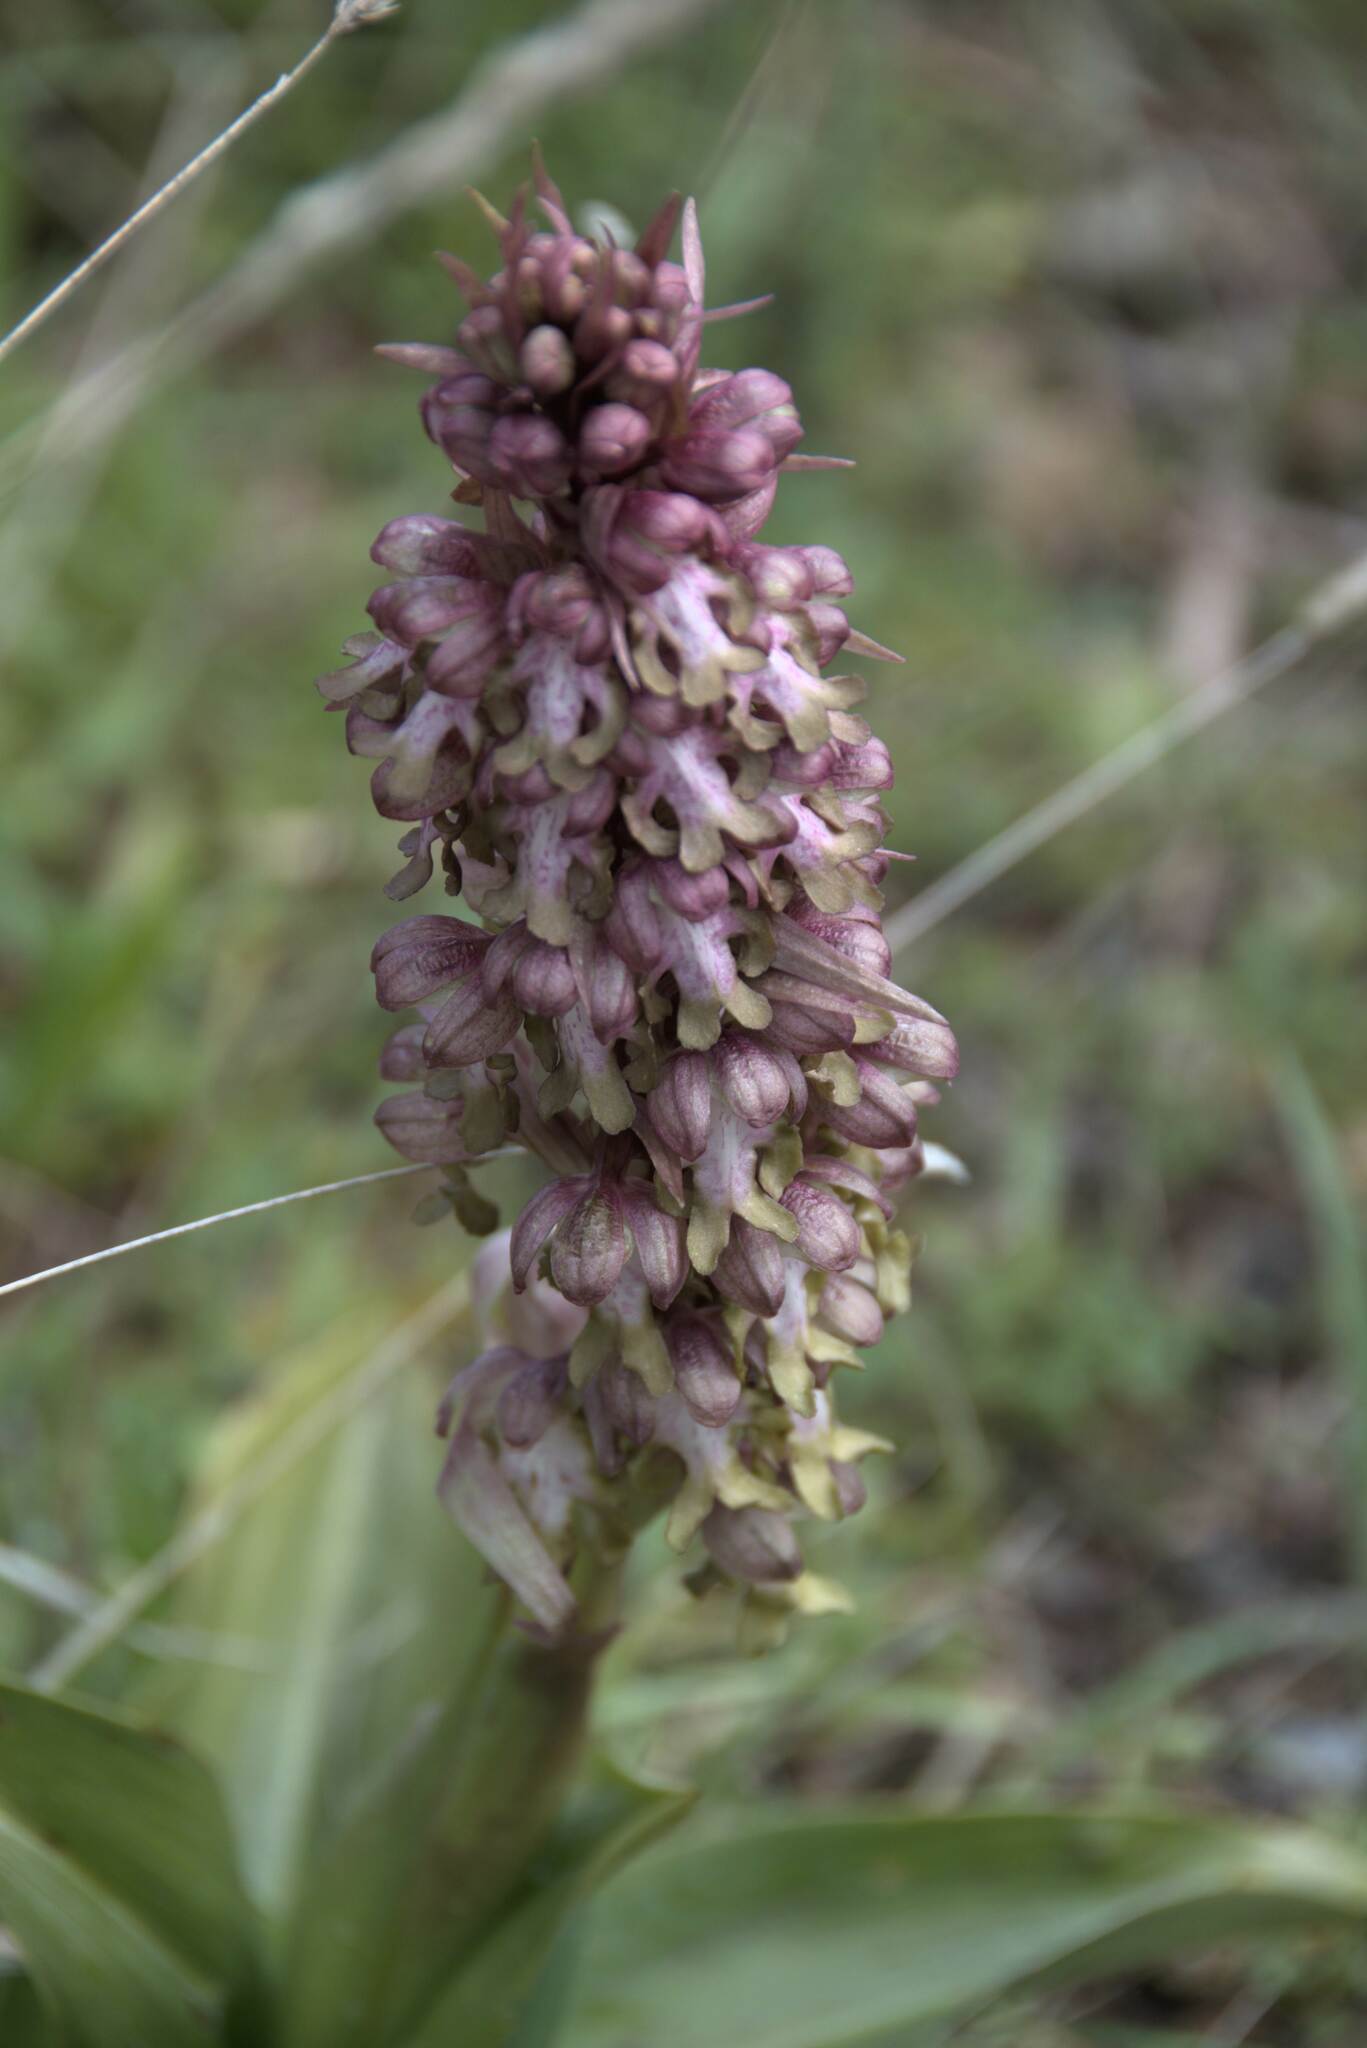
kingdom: Plantae
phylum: Tracheophyta
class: Liliopsida
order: Asparagales
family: Orchidaceae
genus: Himantoglossum
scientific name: Himantoglossum robertianum
